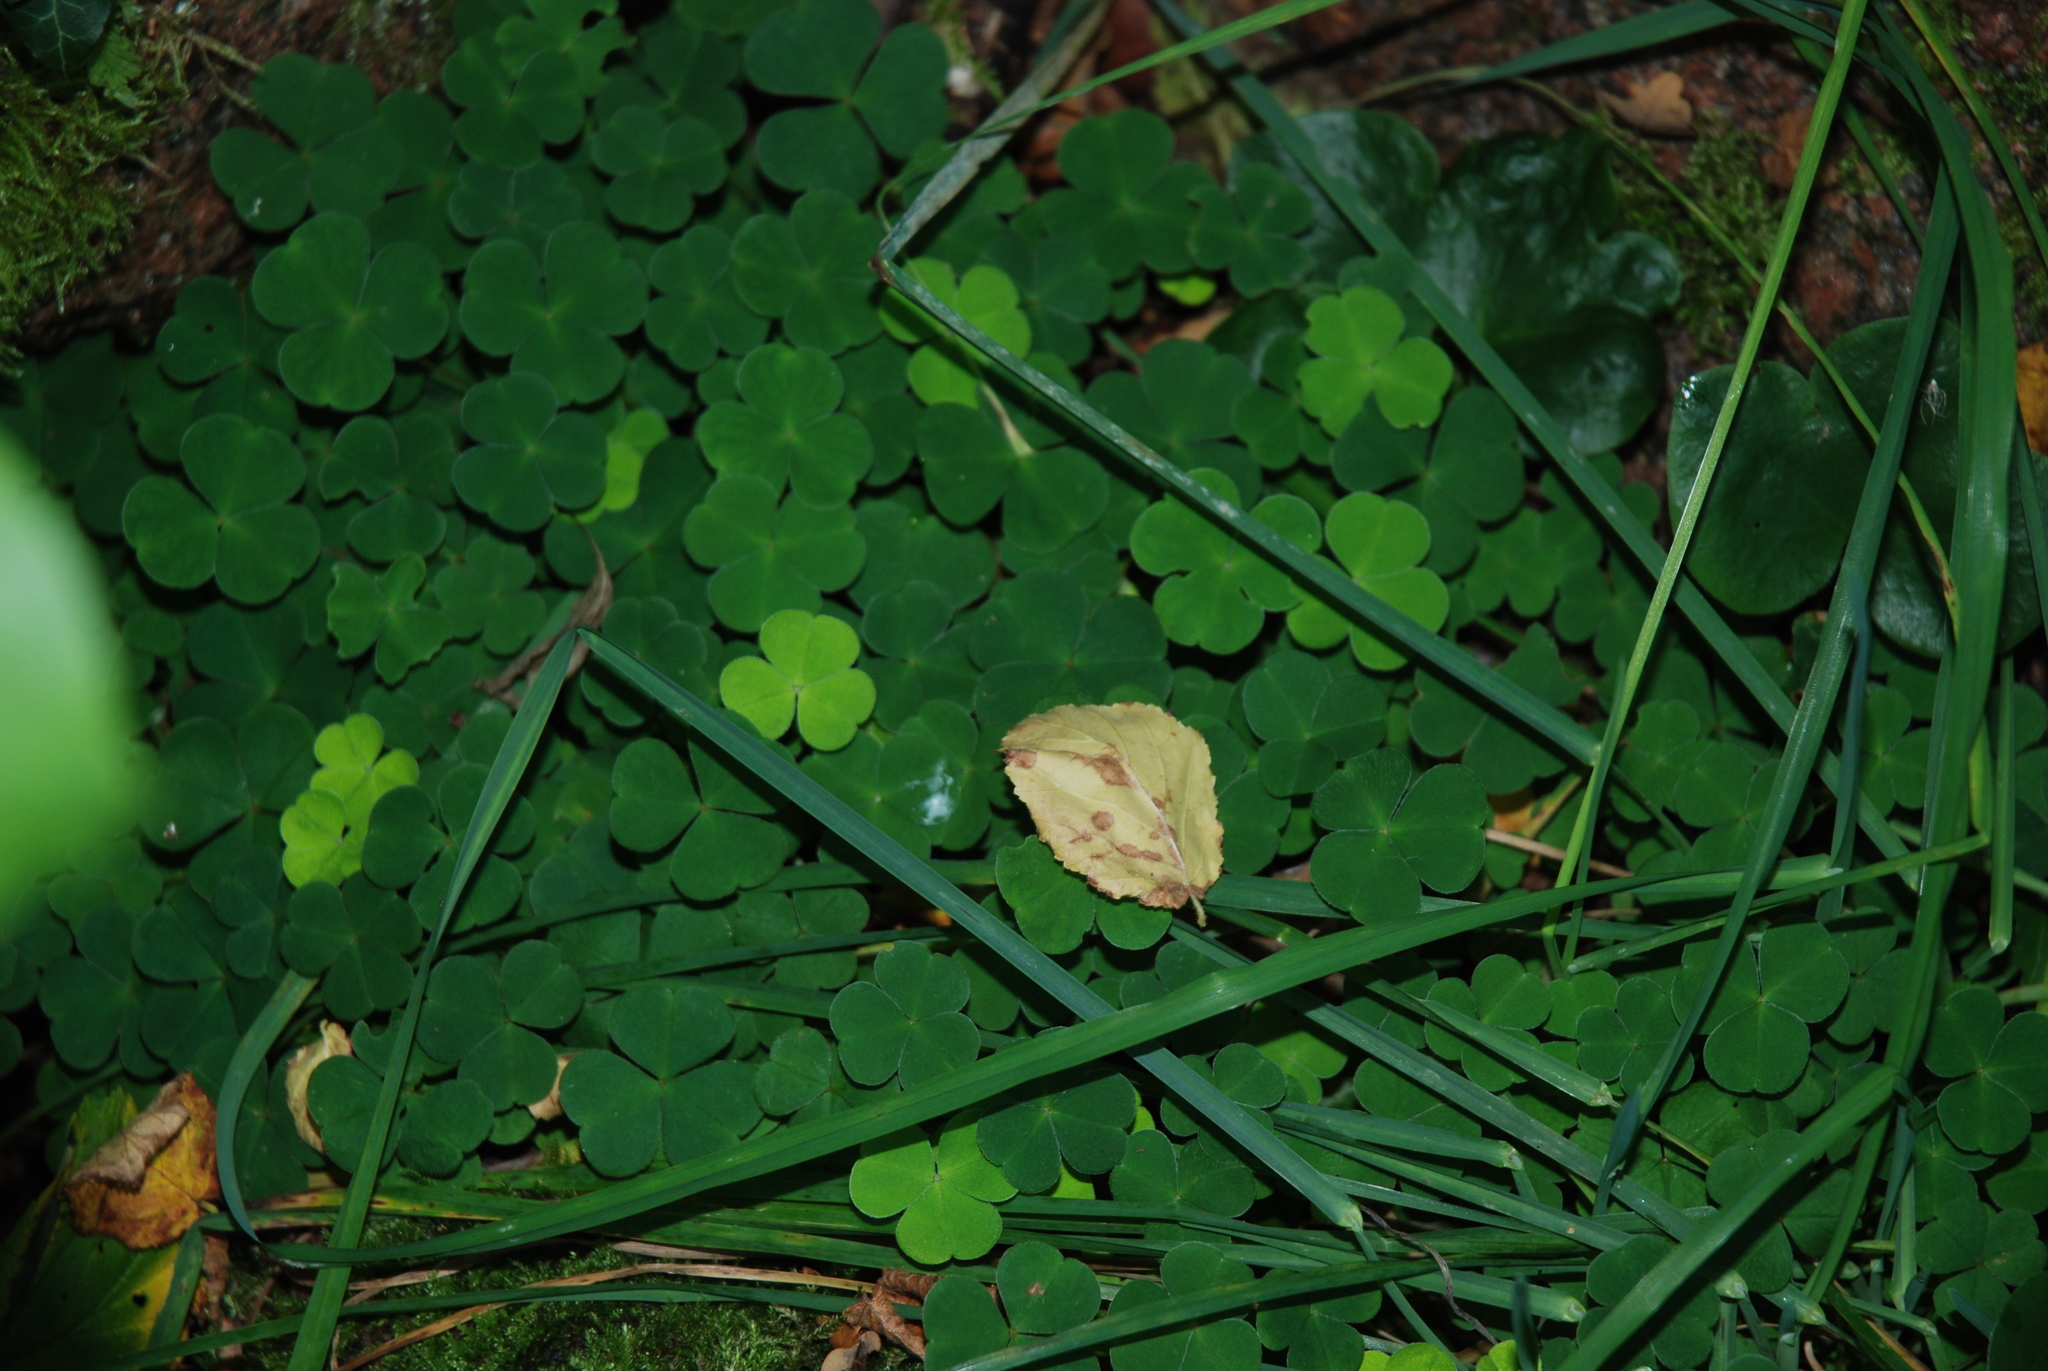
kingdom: Plantae
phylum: Tracheophyta
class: Magnoliopsida
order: Oxalidales
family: Oxalidaceae
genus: Oxalis
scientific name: Oxalis acetosella
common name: Wood-sorrel
